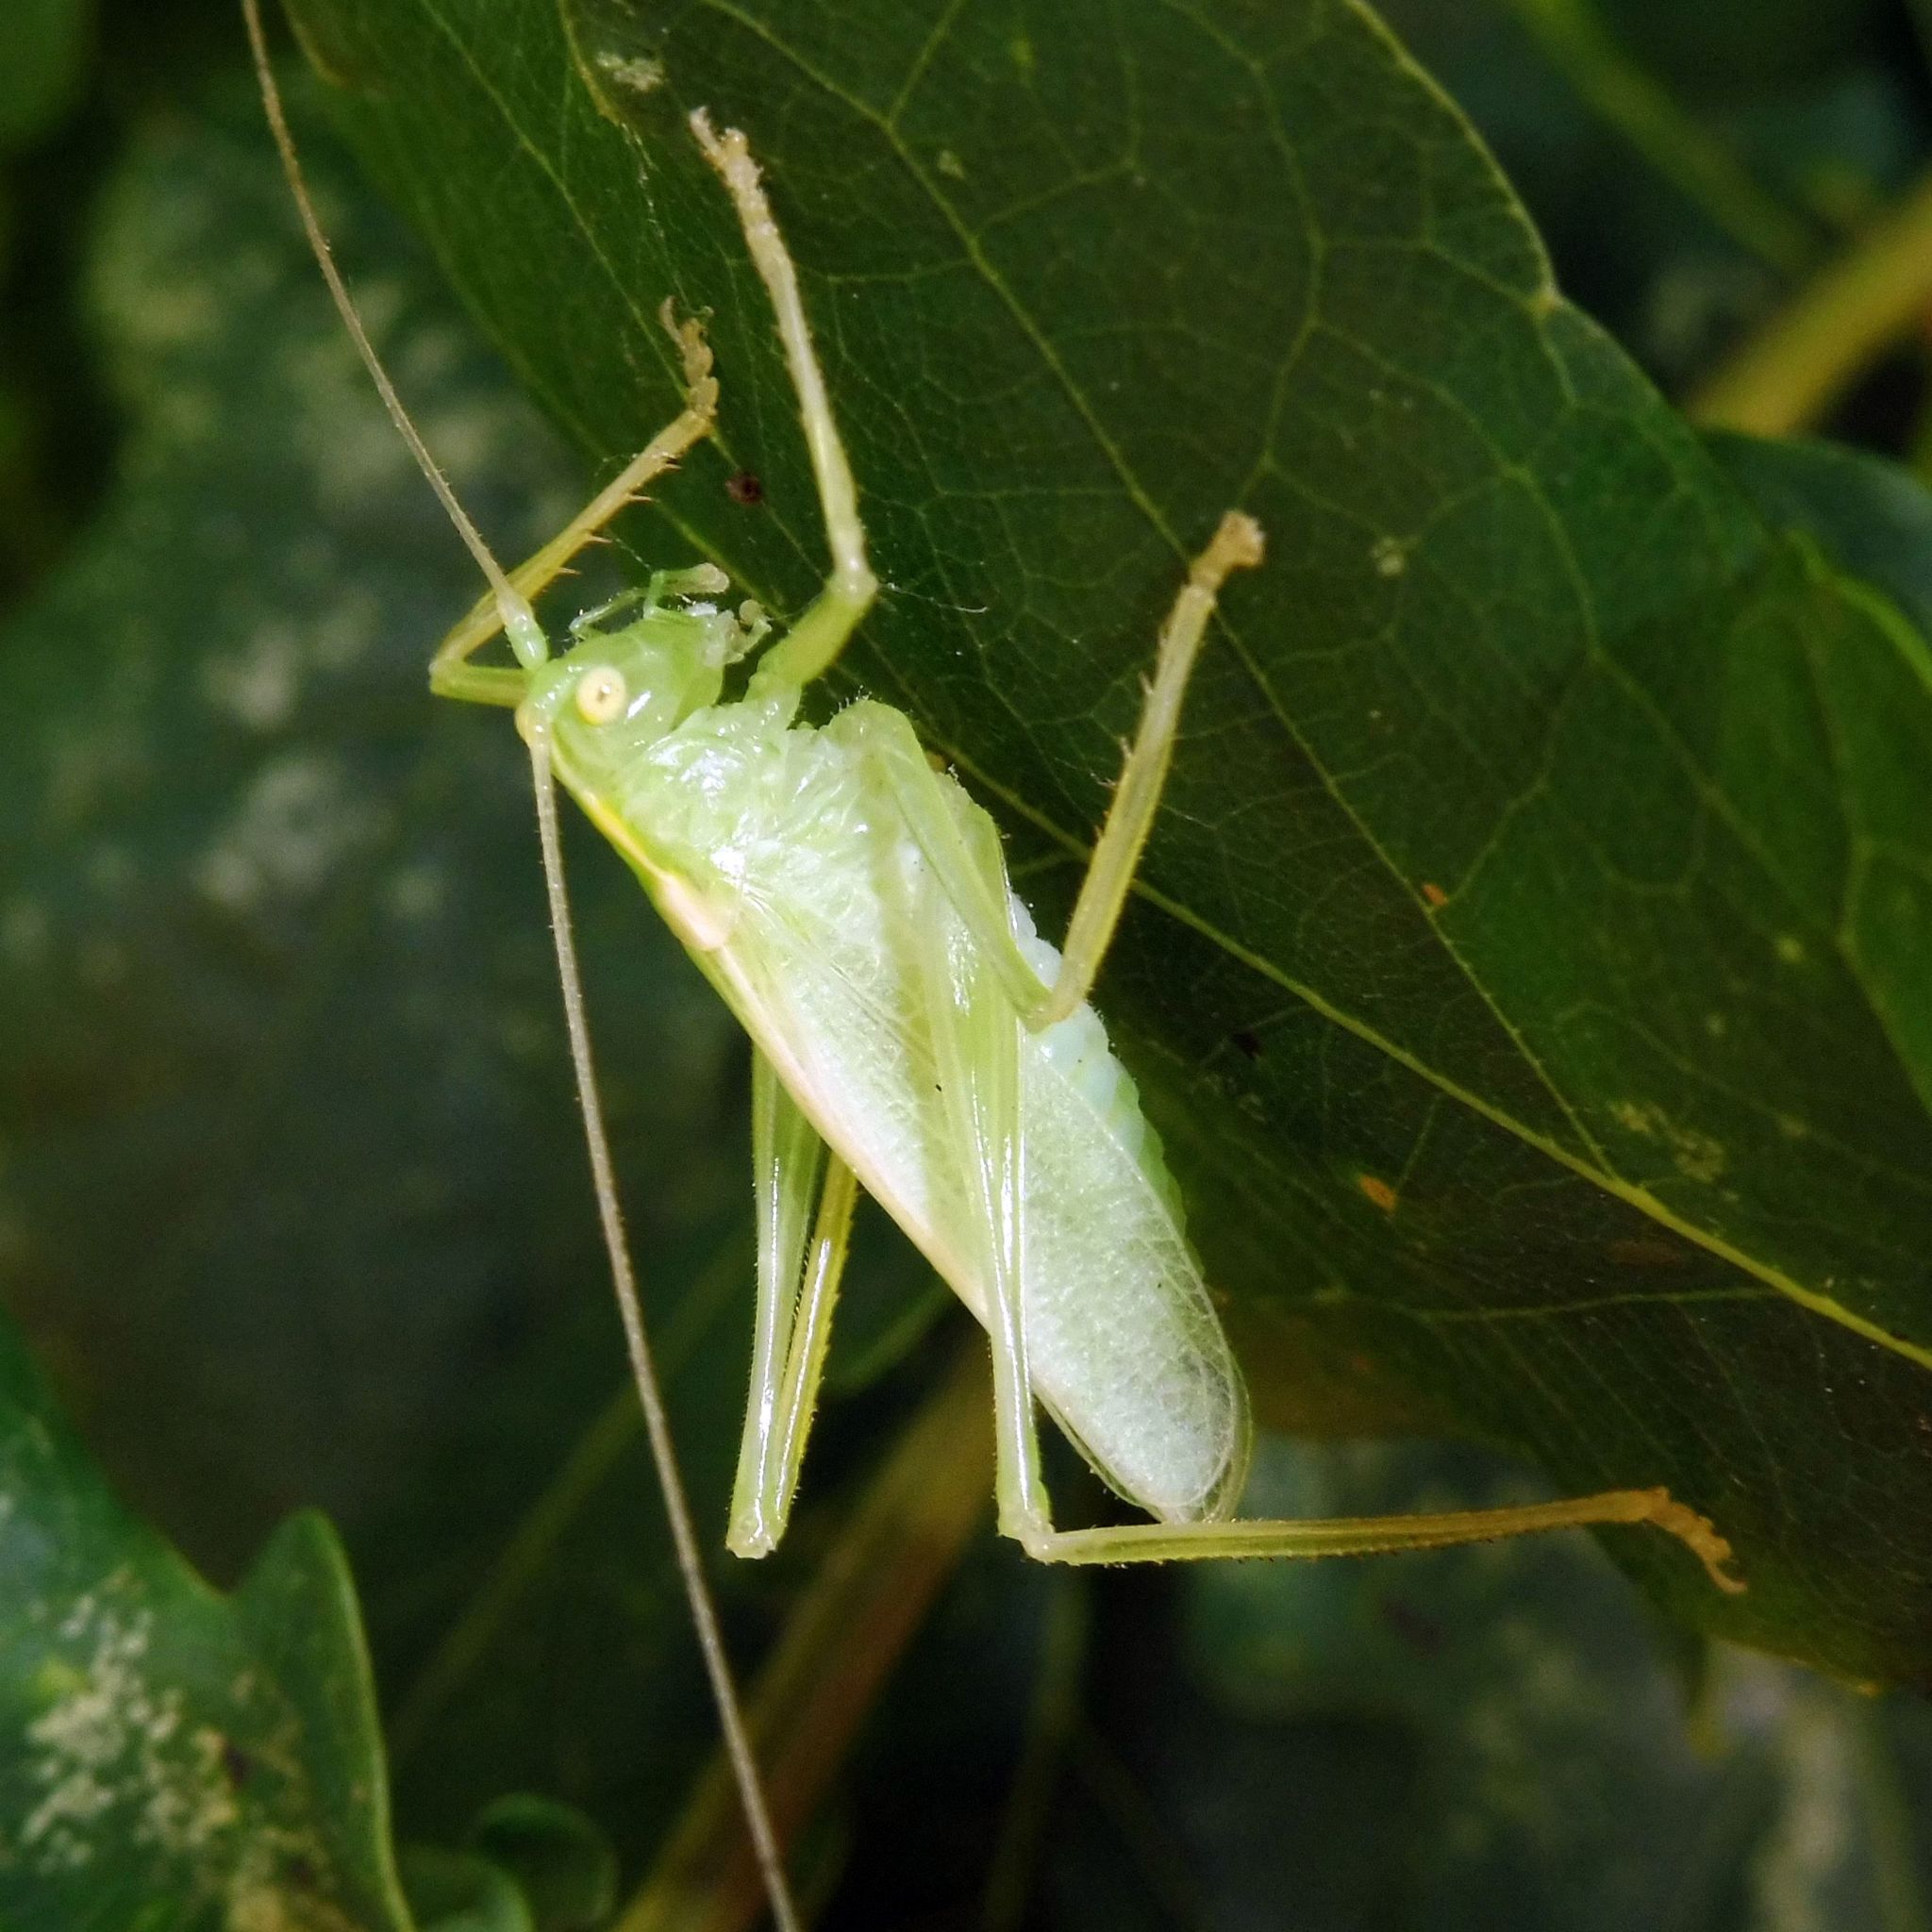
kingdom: Animalia
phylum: Arthropoda
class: Insecta
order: Orthoptera
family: Tettigoniidae
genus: Meconema
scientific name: Meconema thalassinum
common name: Oak bush-cricket
